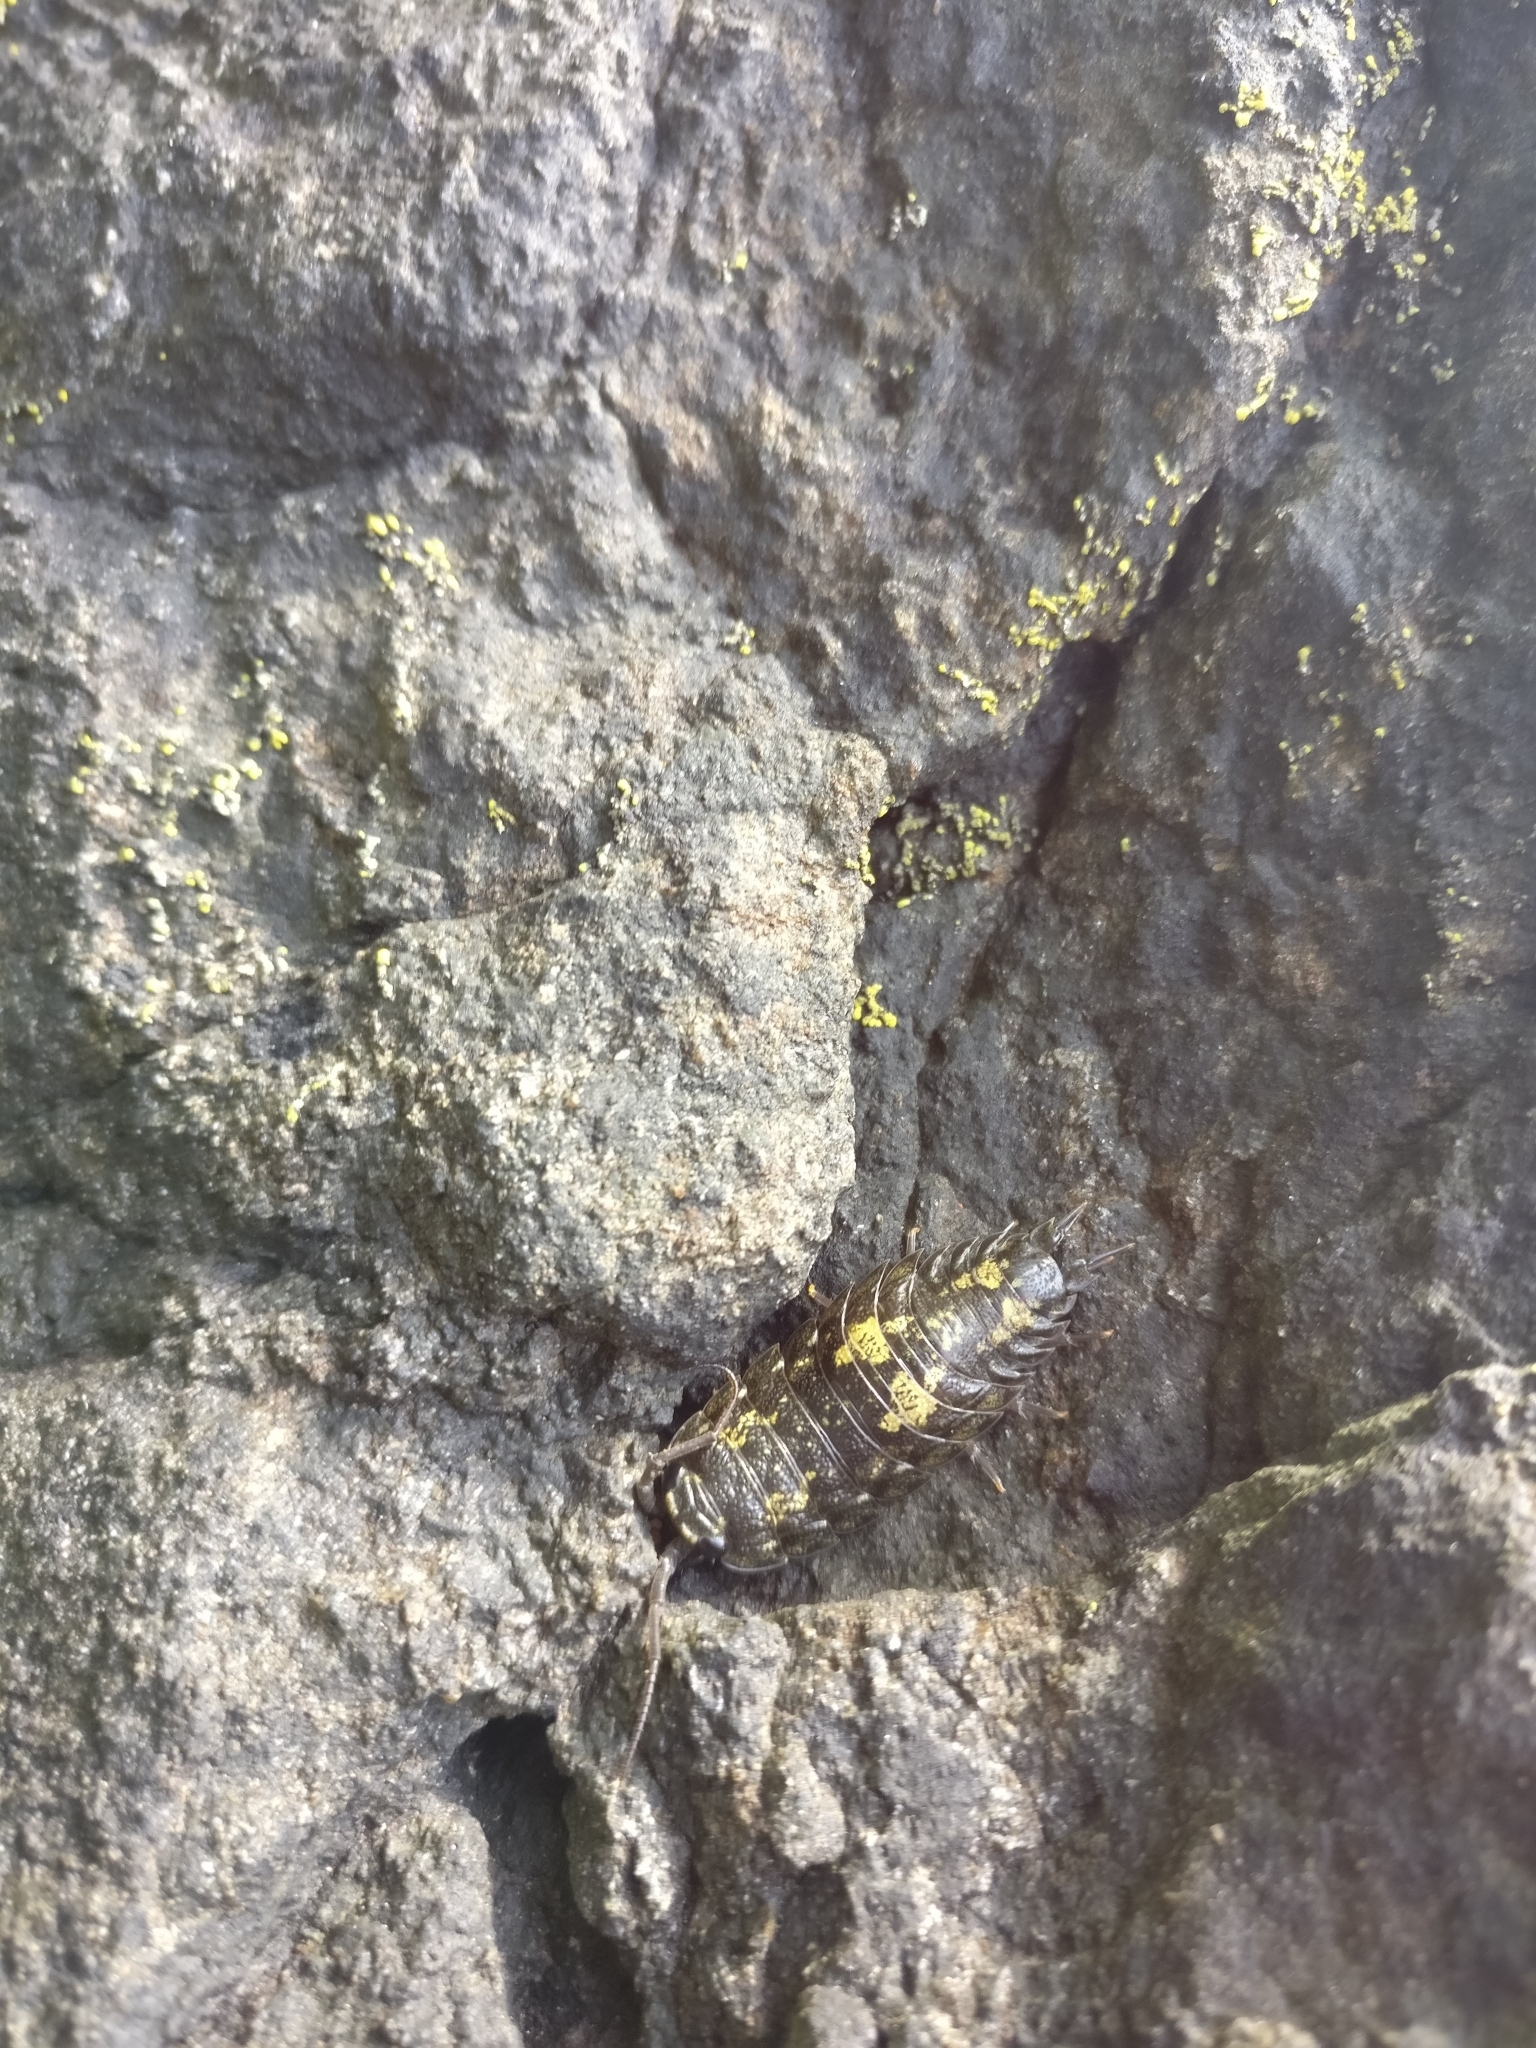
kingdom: Animalia
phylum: Arthropoda
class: Malacostraca
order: Isopoda
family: Ligiidae
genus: Ligia
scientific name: Ligia pallasii
